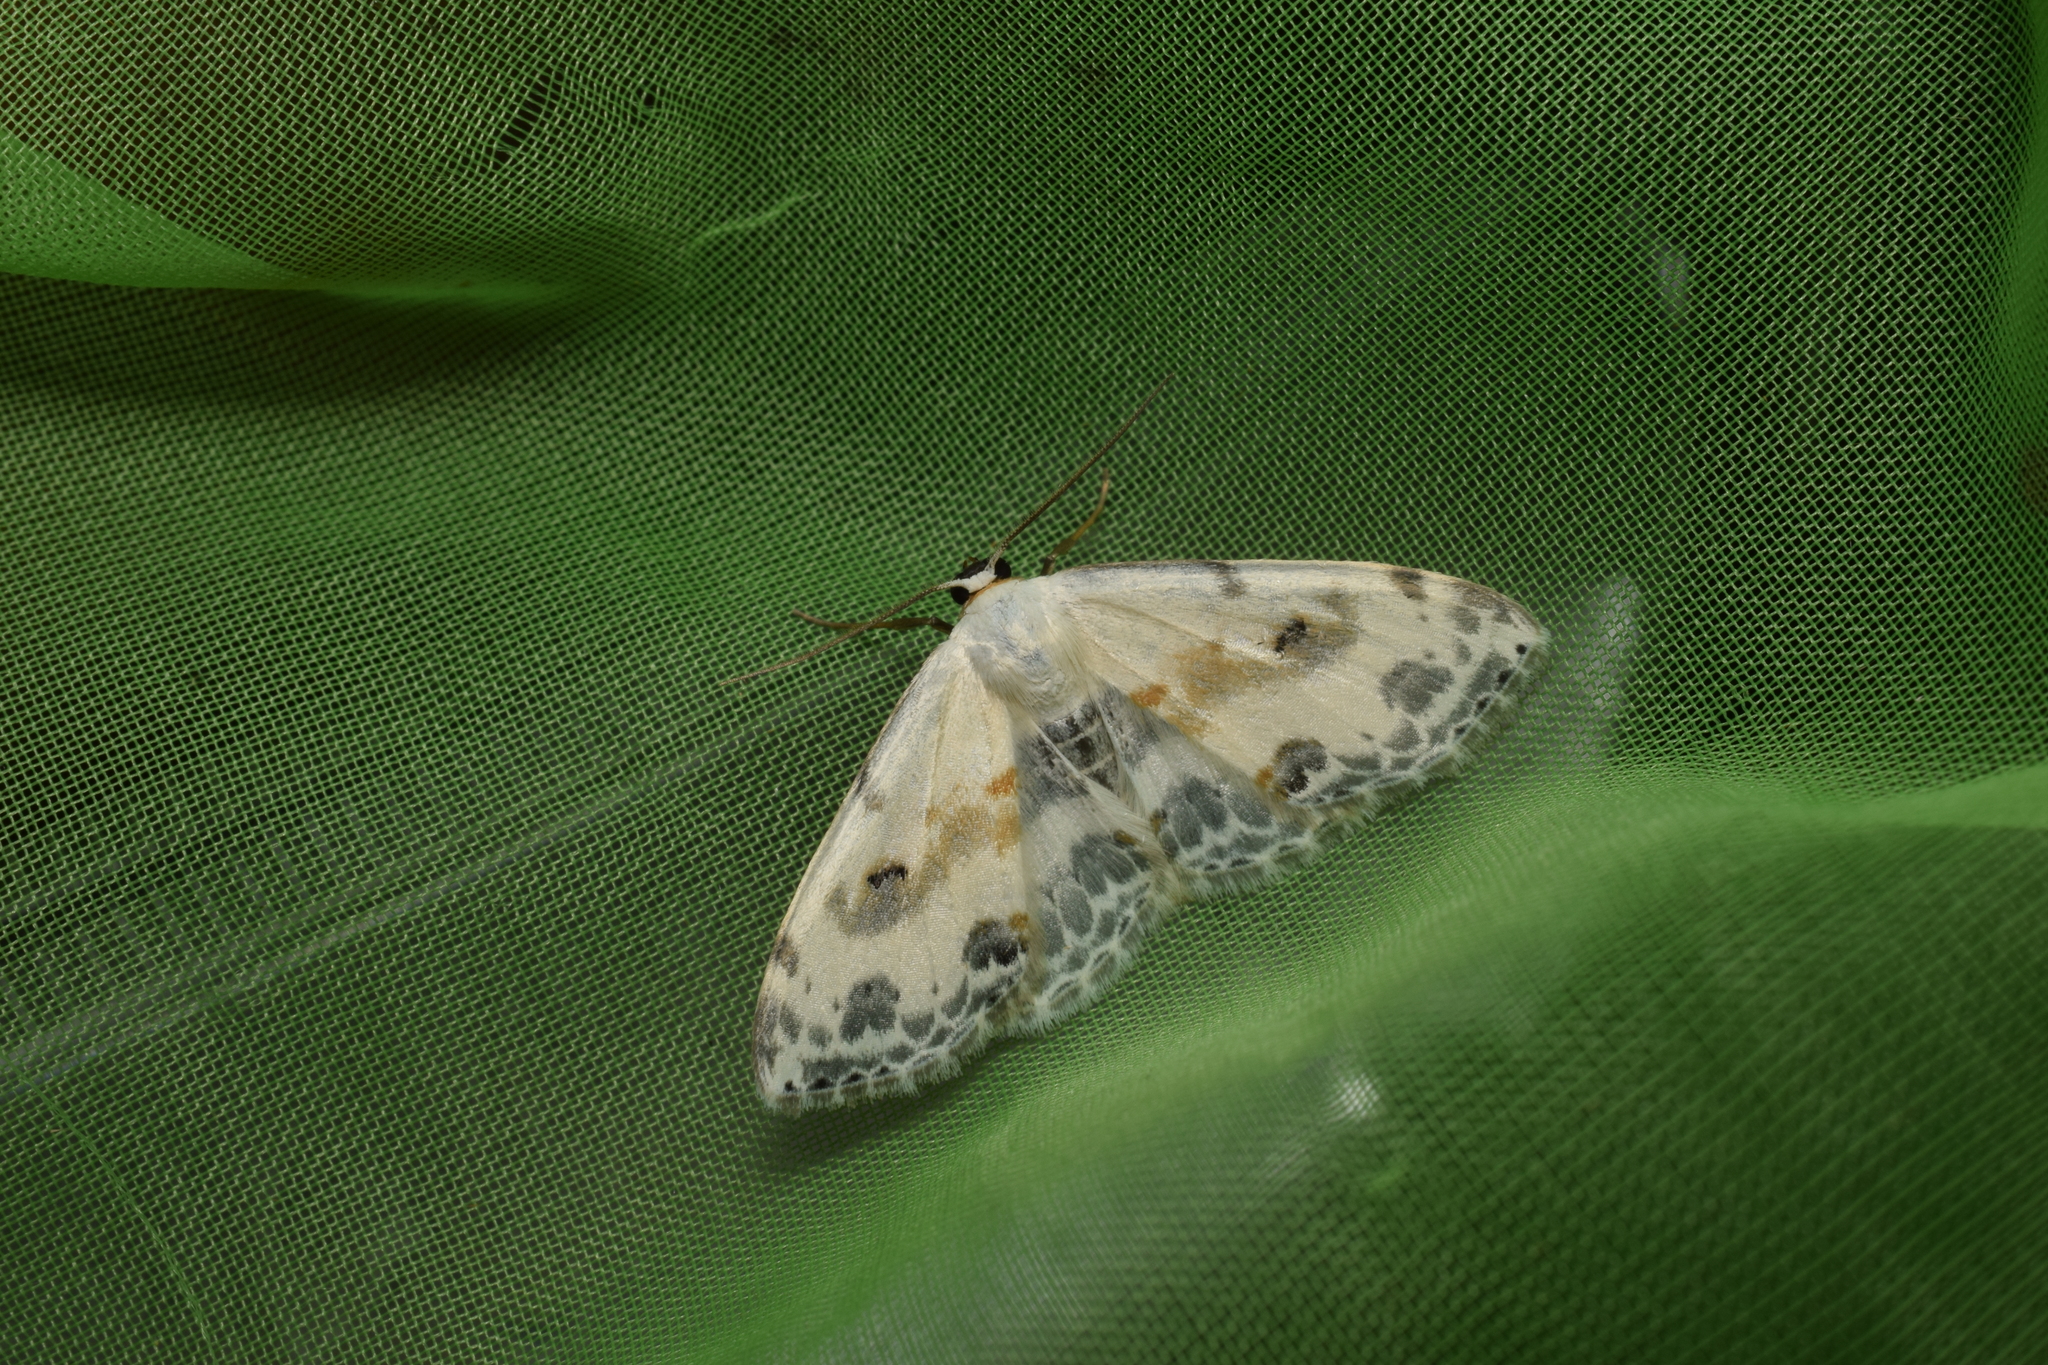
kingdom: Animalia
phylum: Arthropoda
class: Insecta
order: Lepidoptera
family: Geometridae
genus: Scopula
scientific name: Scopula
